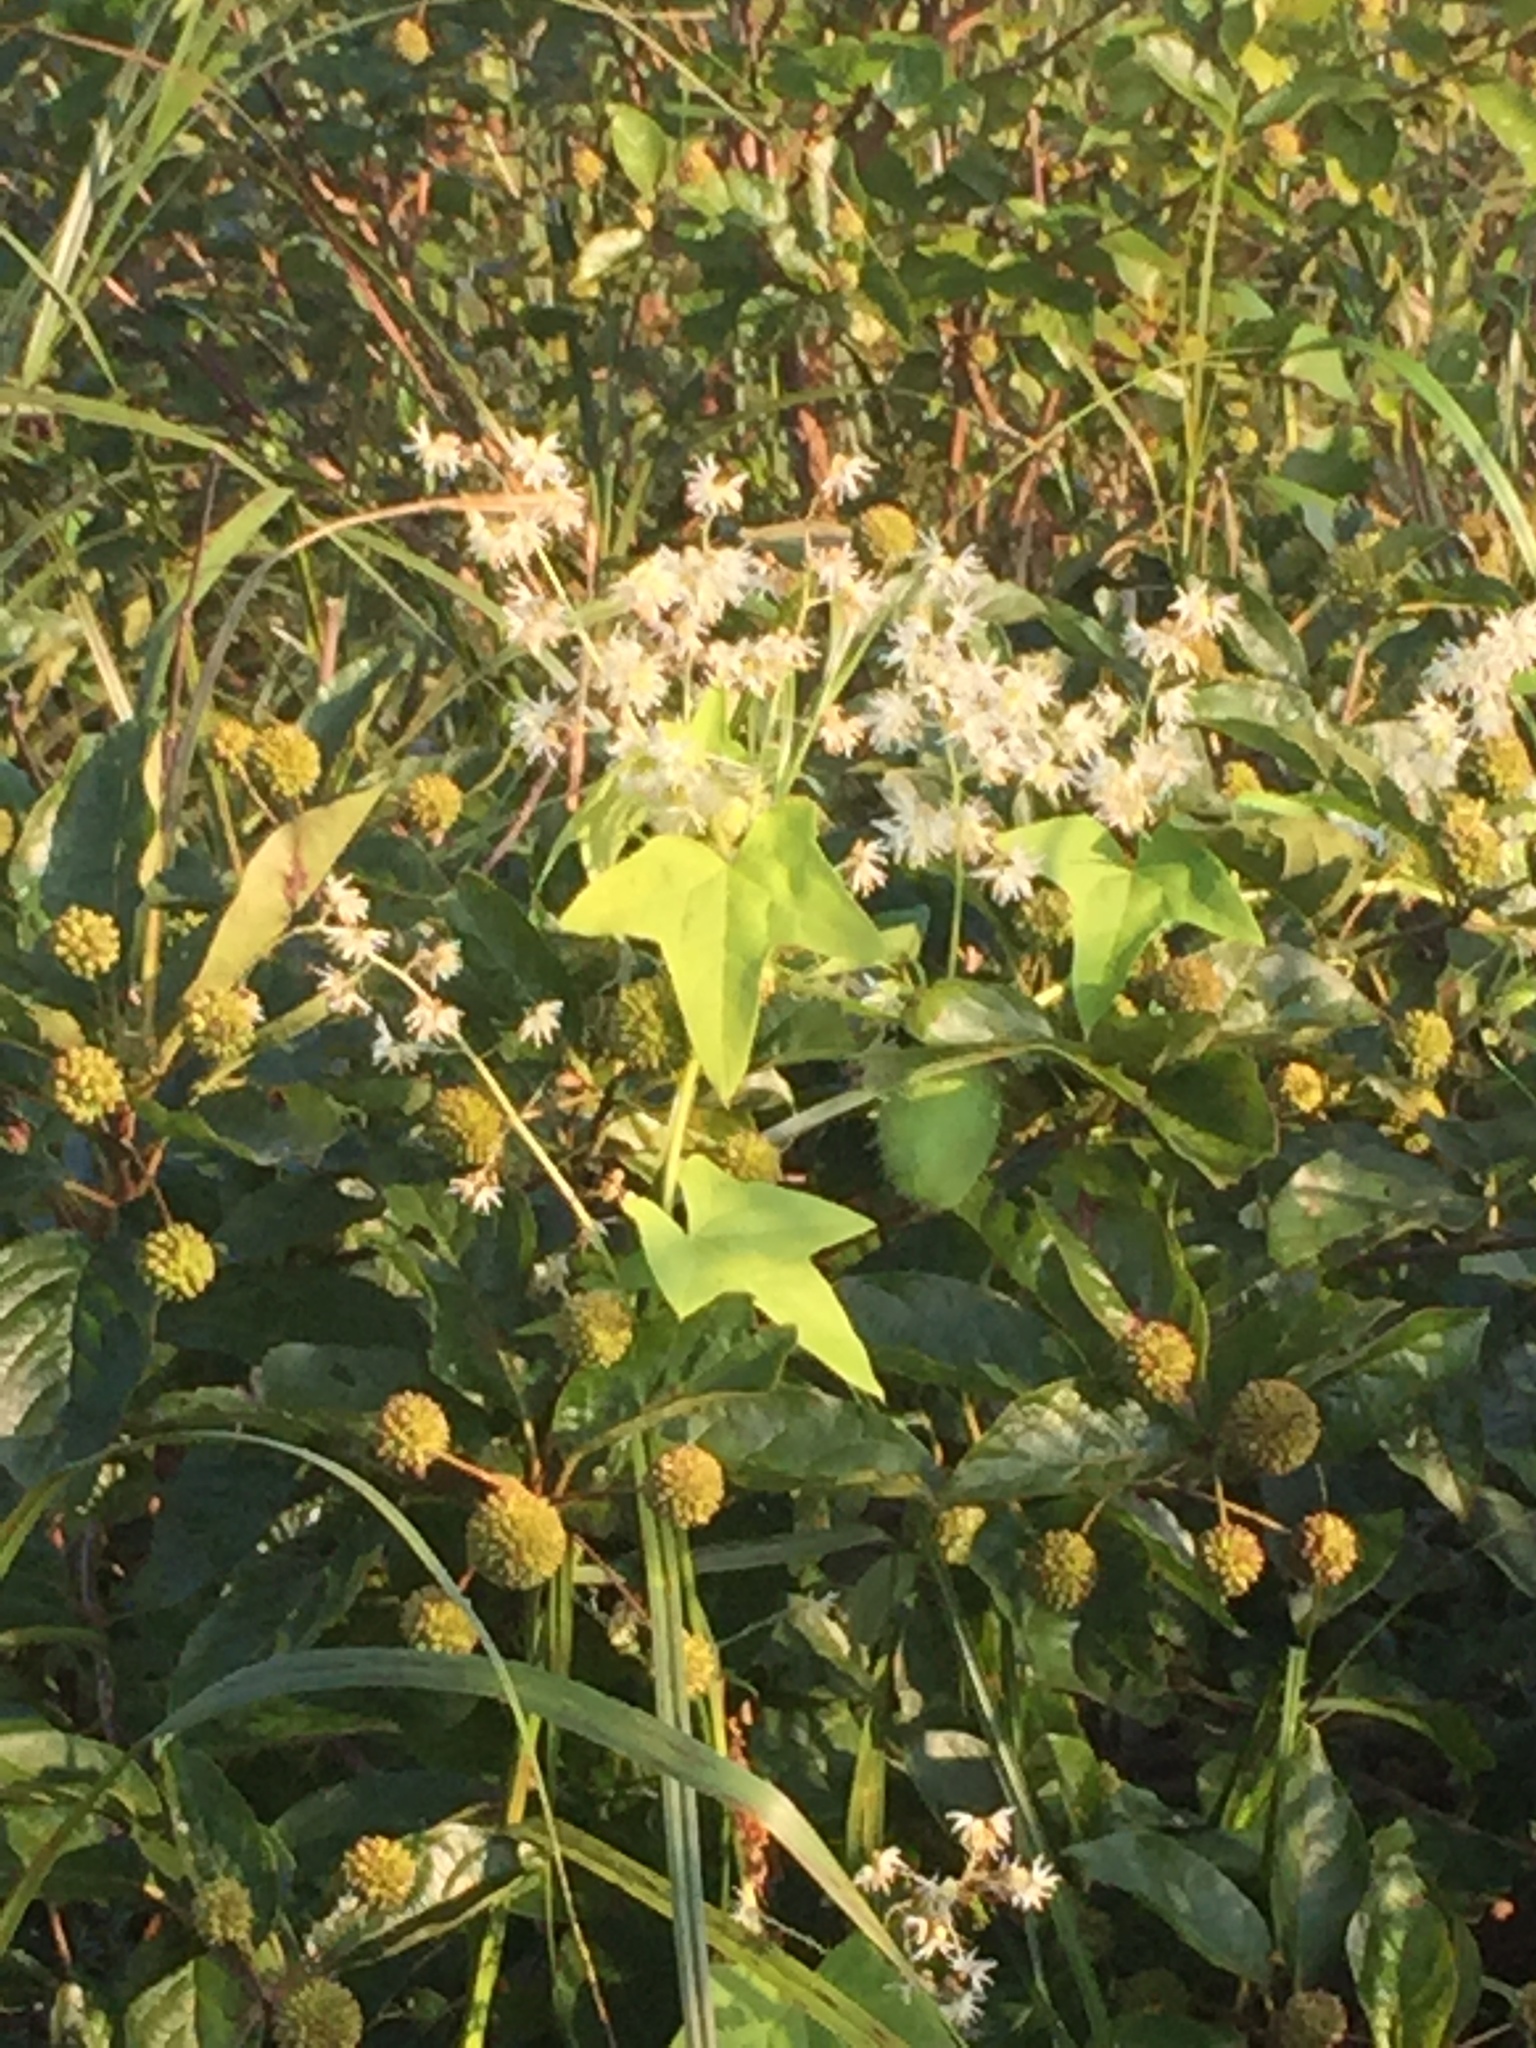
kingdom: Plantae
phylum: Tracheophyta
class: Magnoliopsida
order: Cucurbitales
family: Cucurbitaceae
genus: Echinocystis
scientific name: Echinocystis lobata
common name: Wild cucumber
